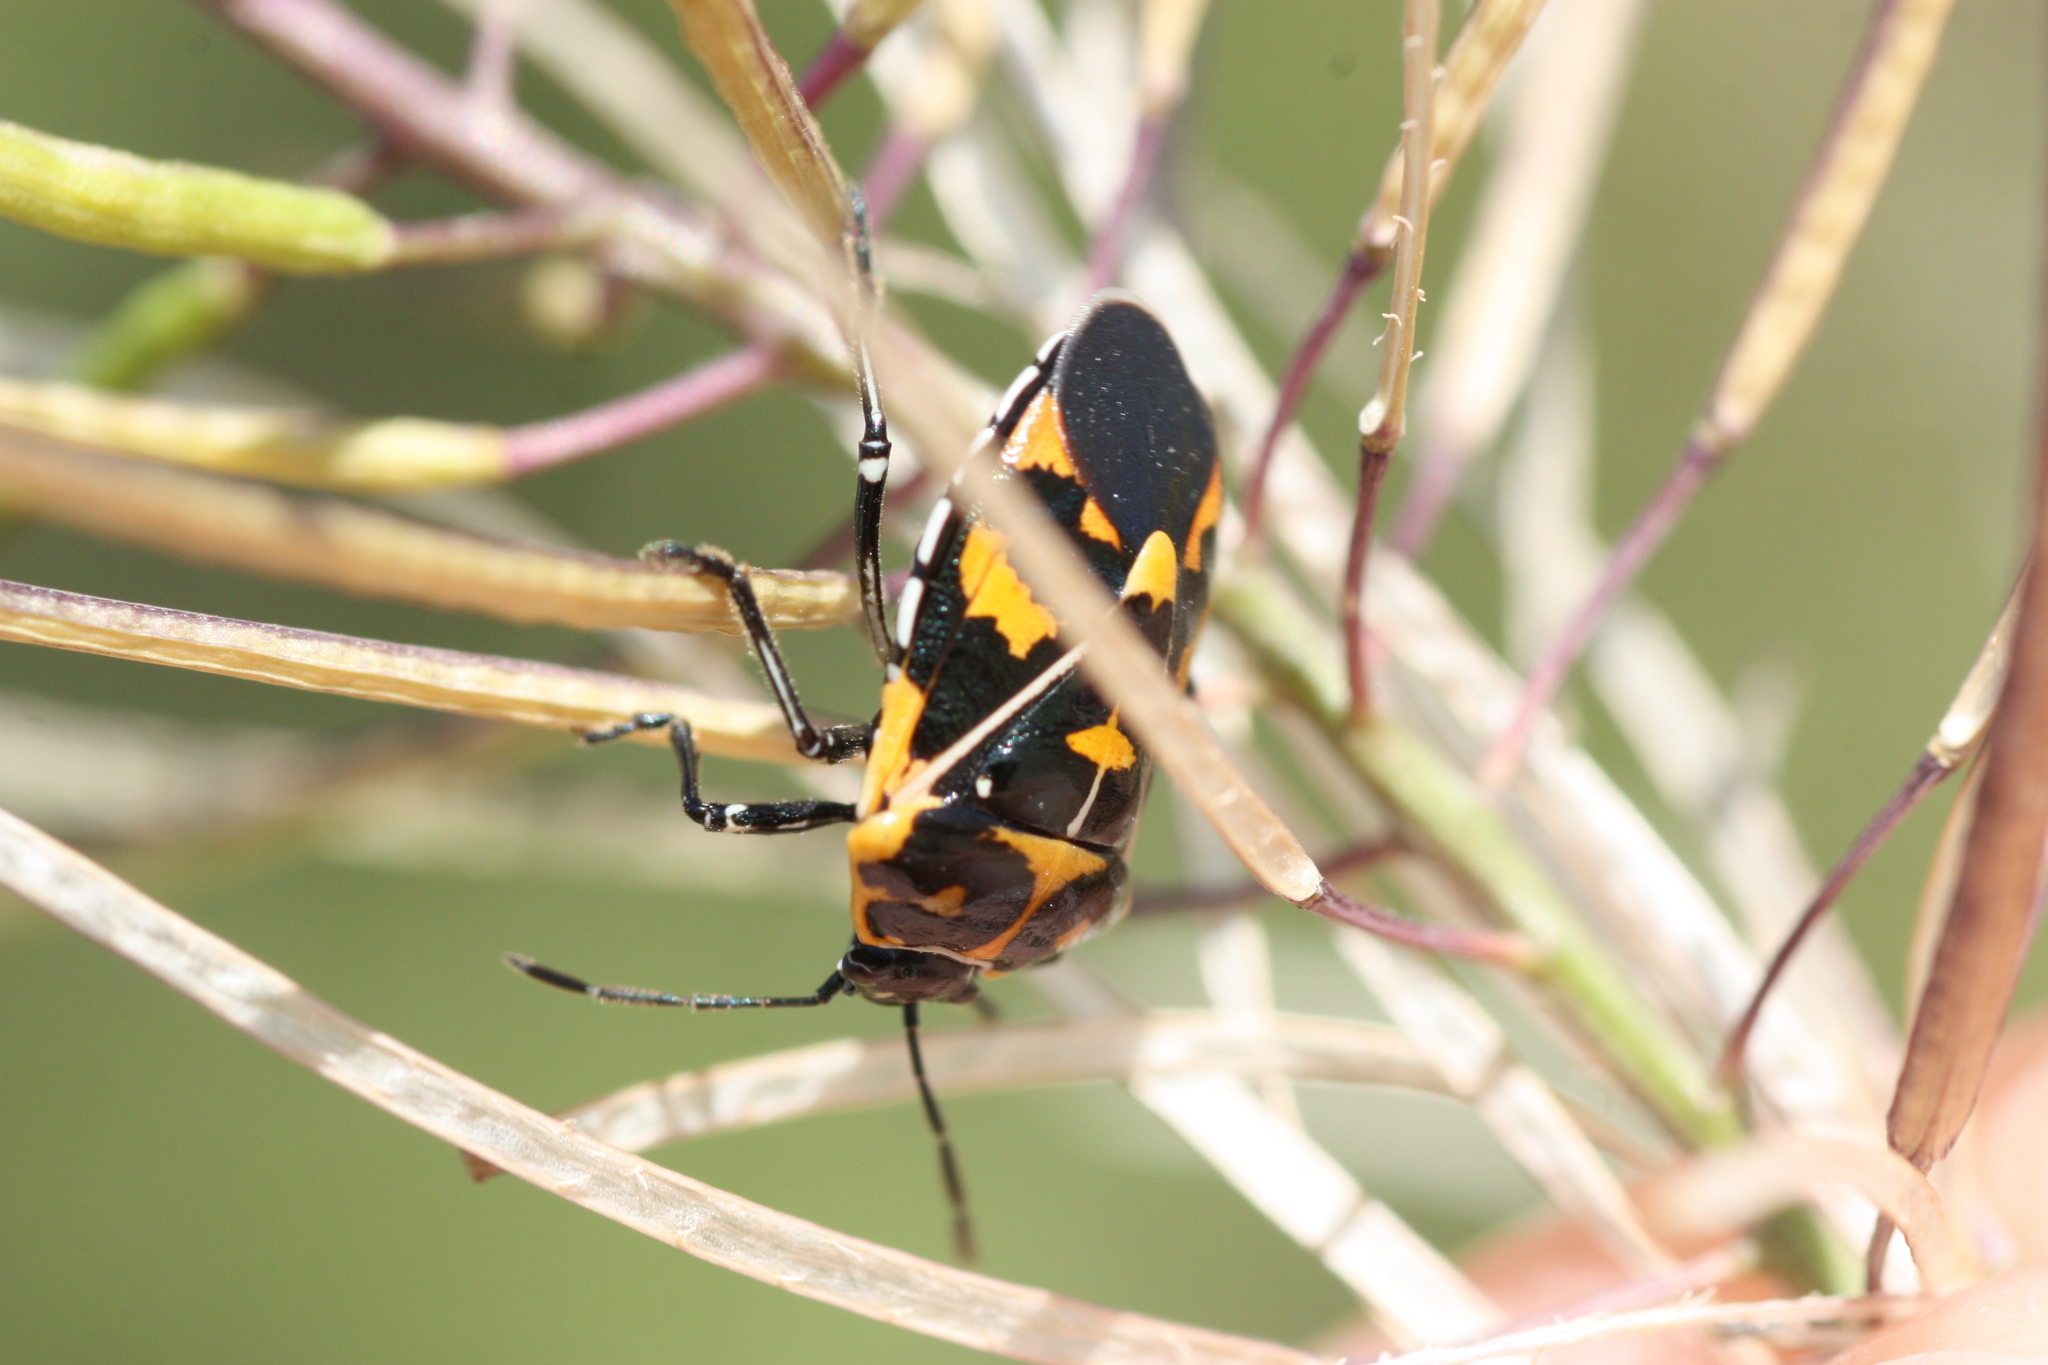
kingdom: Animalia
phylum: Arthropoda
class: Insecta
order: Hemiptera
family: Pentatomidae
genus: Murgantia
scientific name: Murgantia histrionica
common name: Harlequin bug
